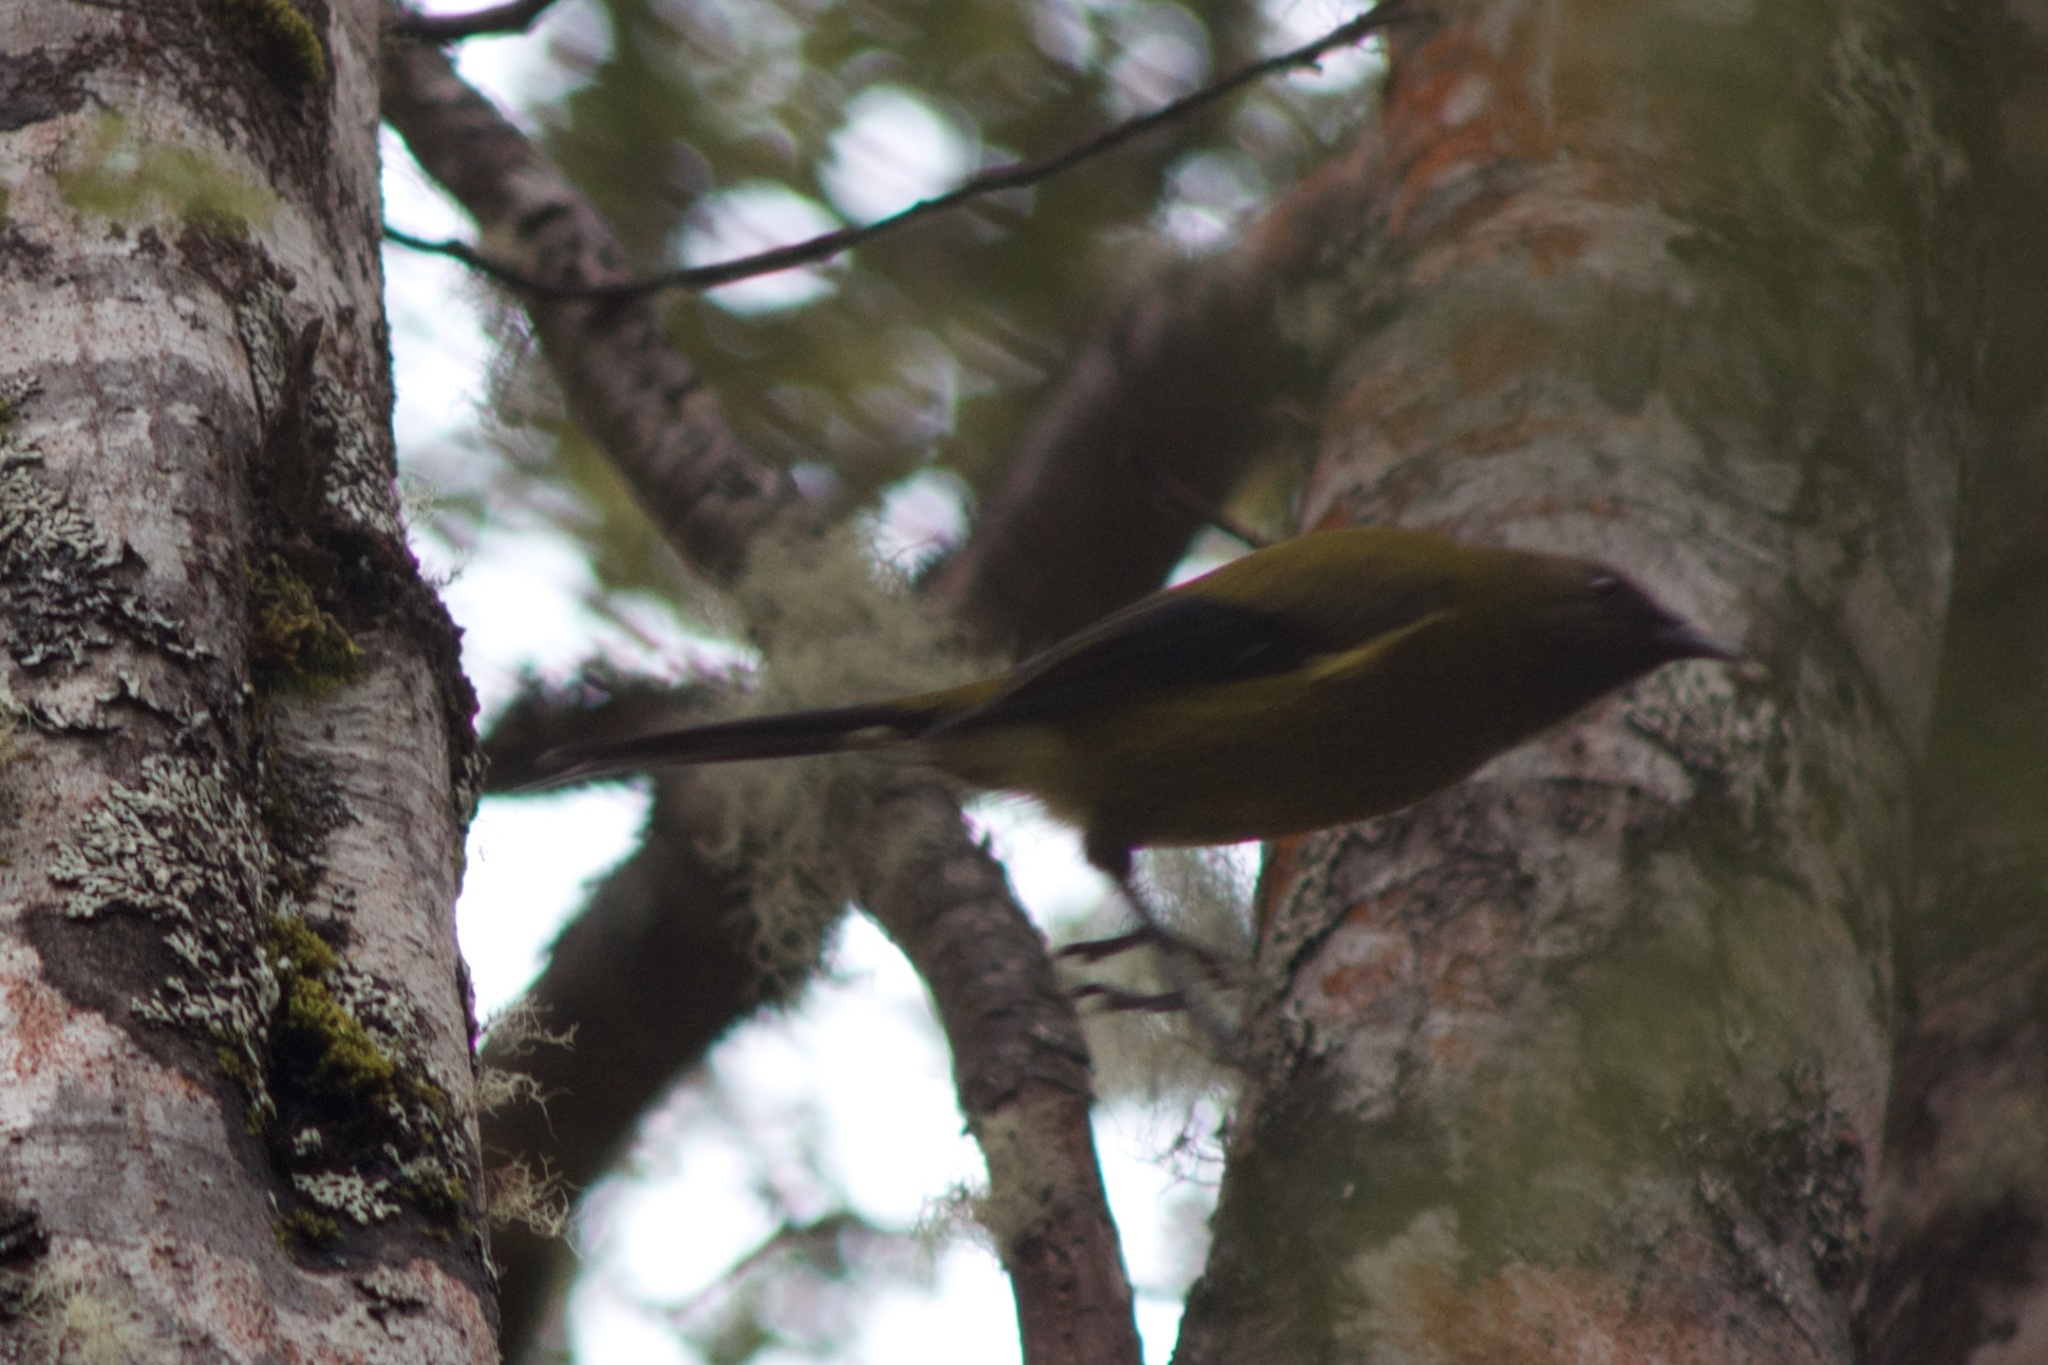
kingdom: Animalia
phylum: Chordata
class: Aves
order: Passeriformes
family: Meliphagidae
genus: Anthornis
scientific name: Anthornis melanura
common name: New zealand bellbird
